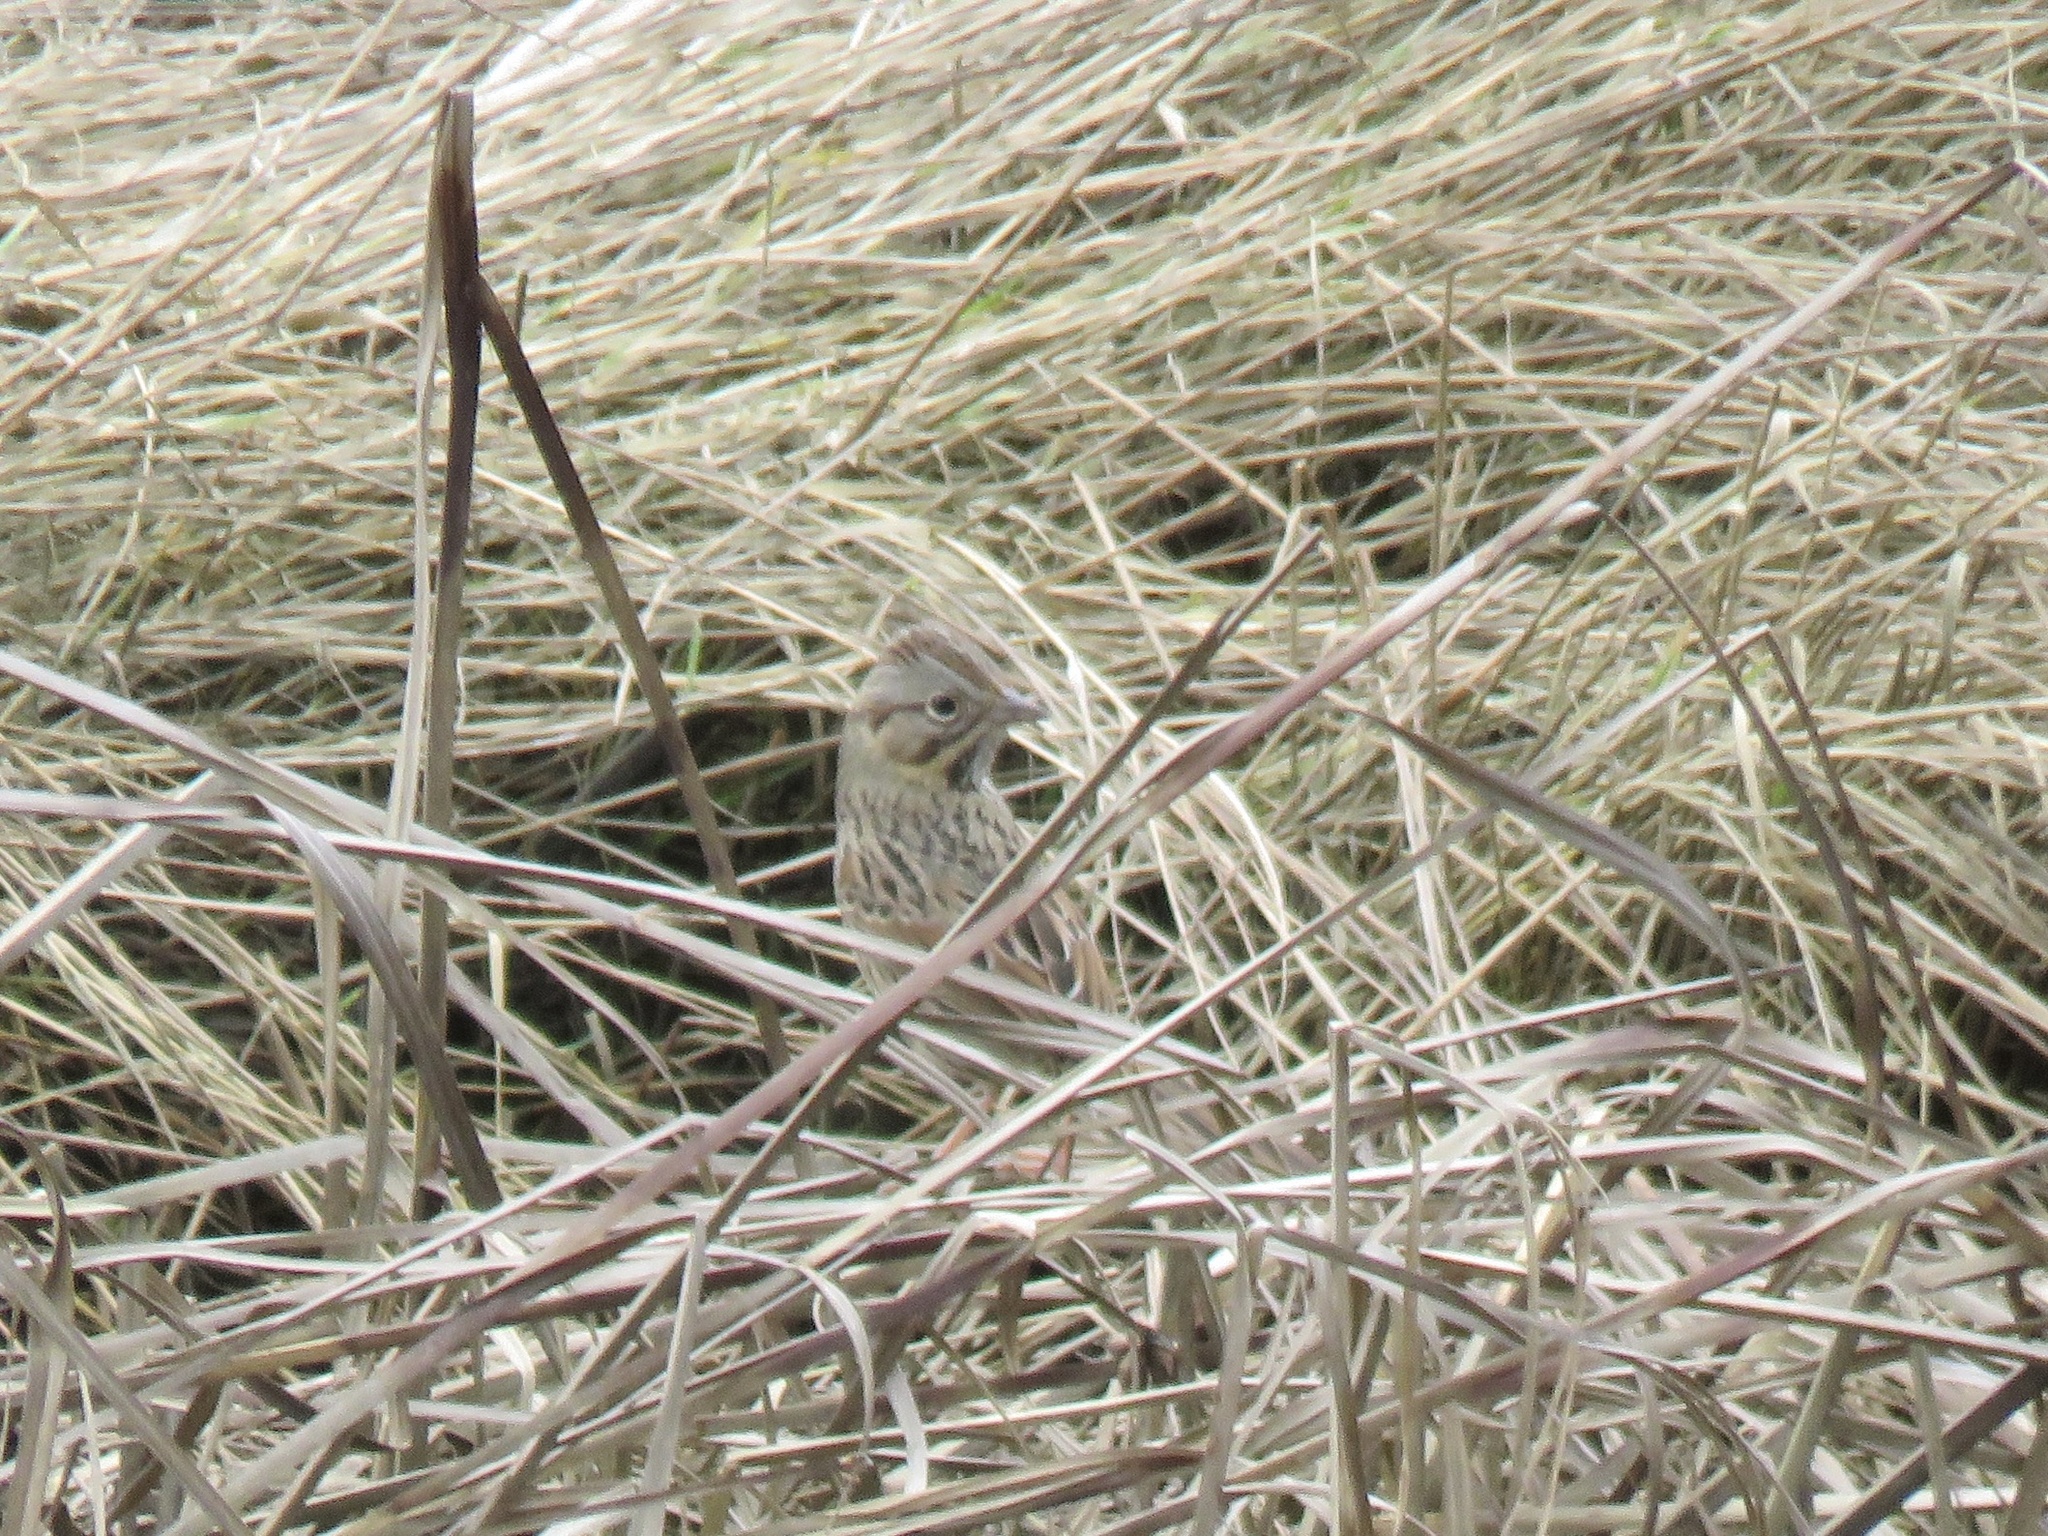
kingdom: Animalia
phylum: Chordata
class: Aves
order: Passeriformes
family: Passerellidae
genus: Melospiza
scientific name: Melospiza lincolnii
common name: Lincoln's sparrow
